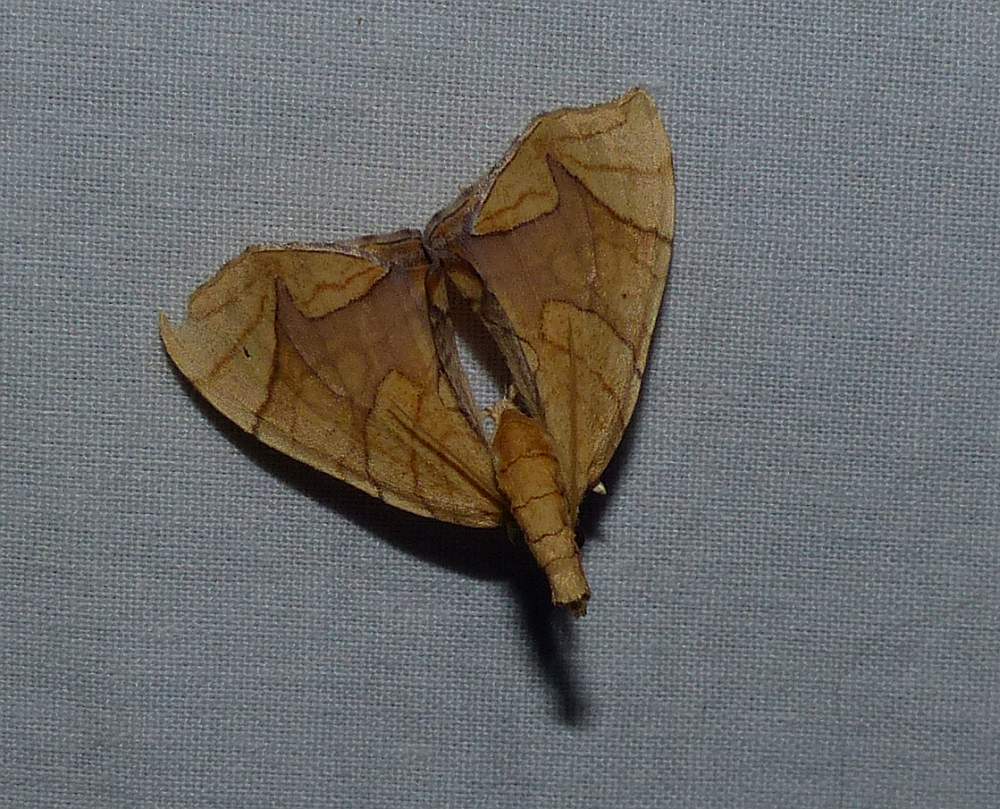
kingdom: Animalia
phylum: Arthropoda
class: Insecta
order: Lepidoptera
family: Geometridae
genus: Eulithis
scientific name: Eulithis
